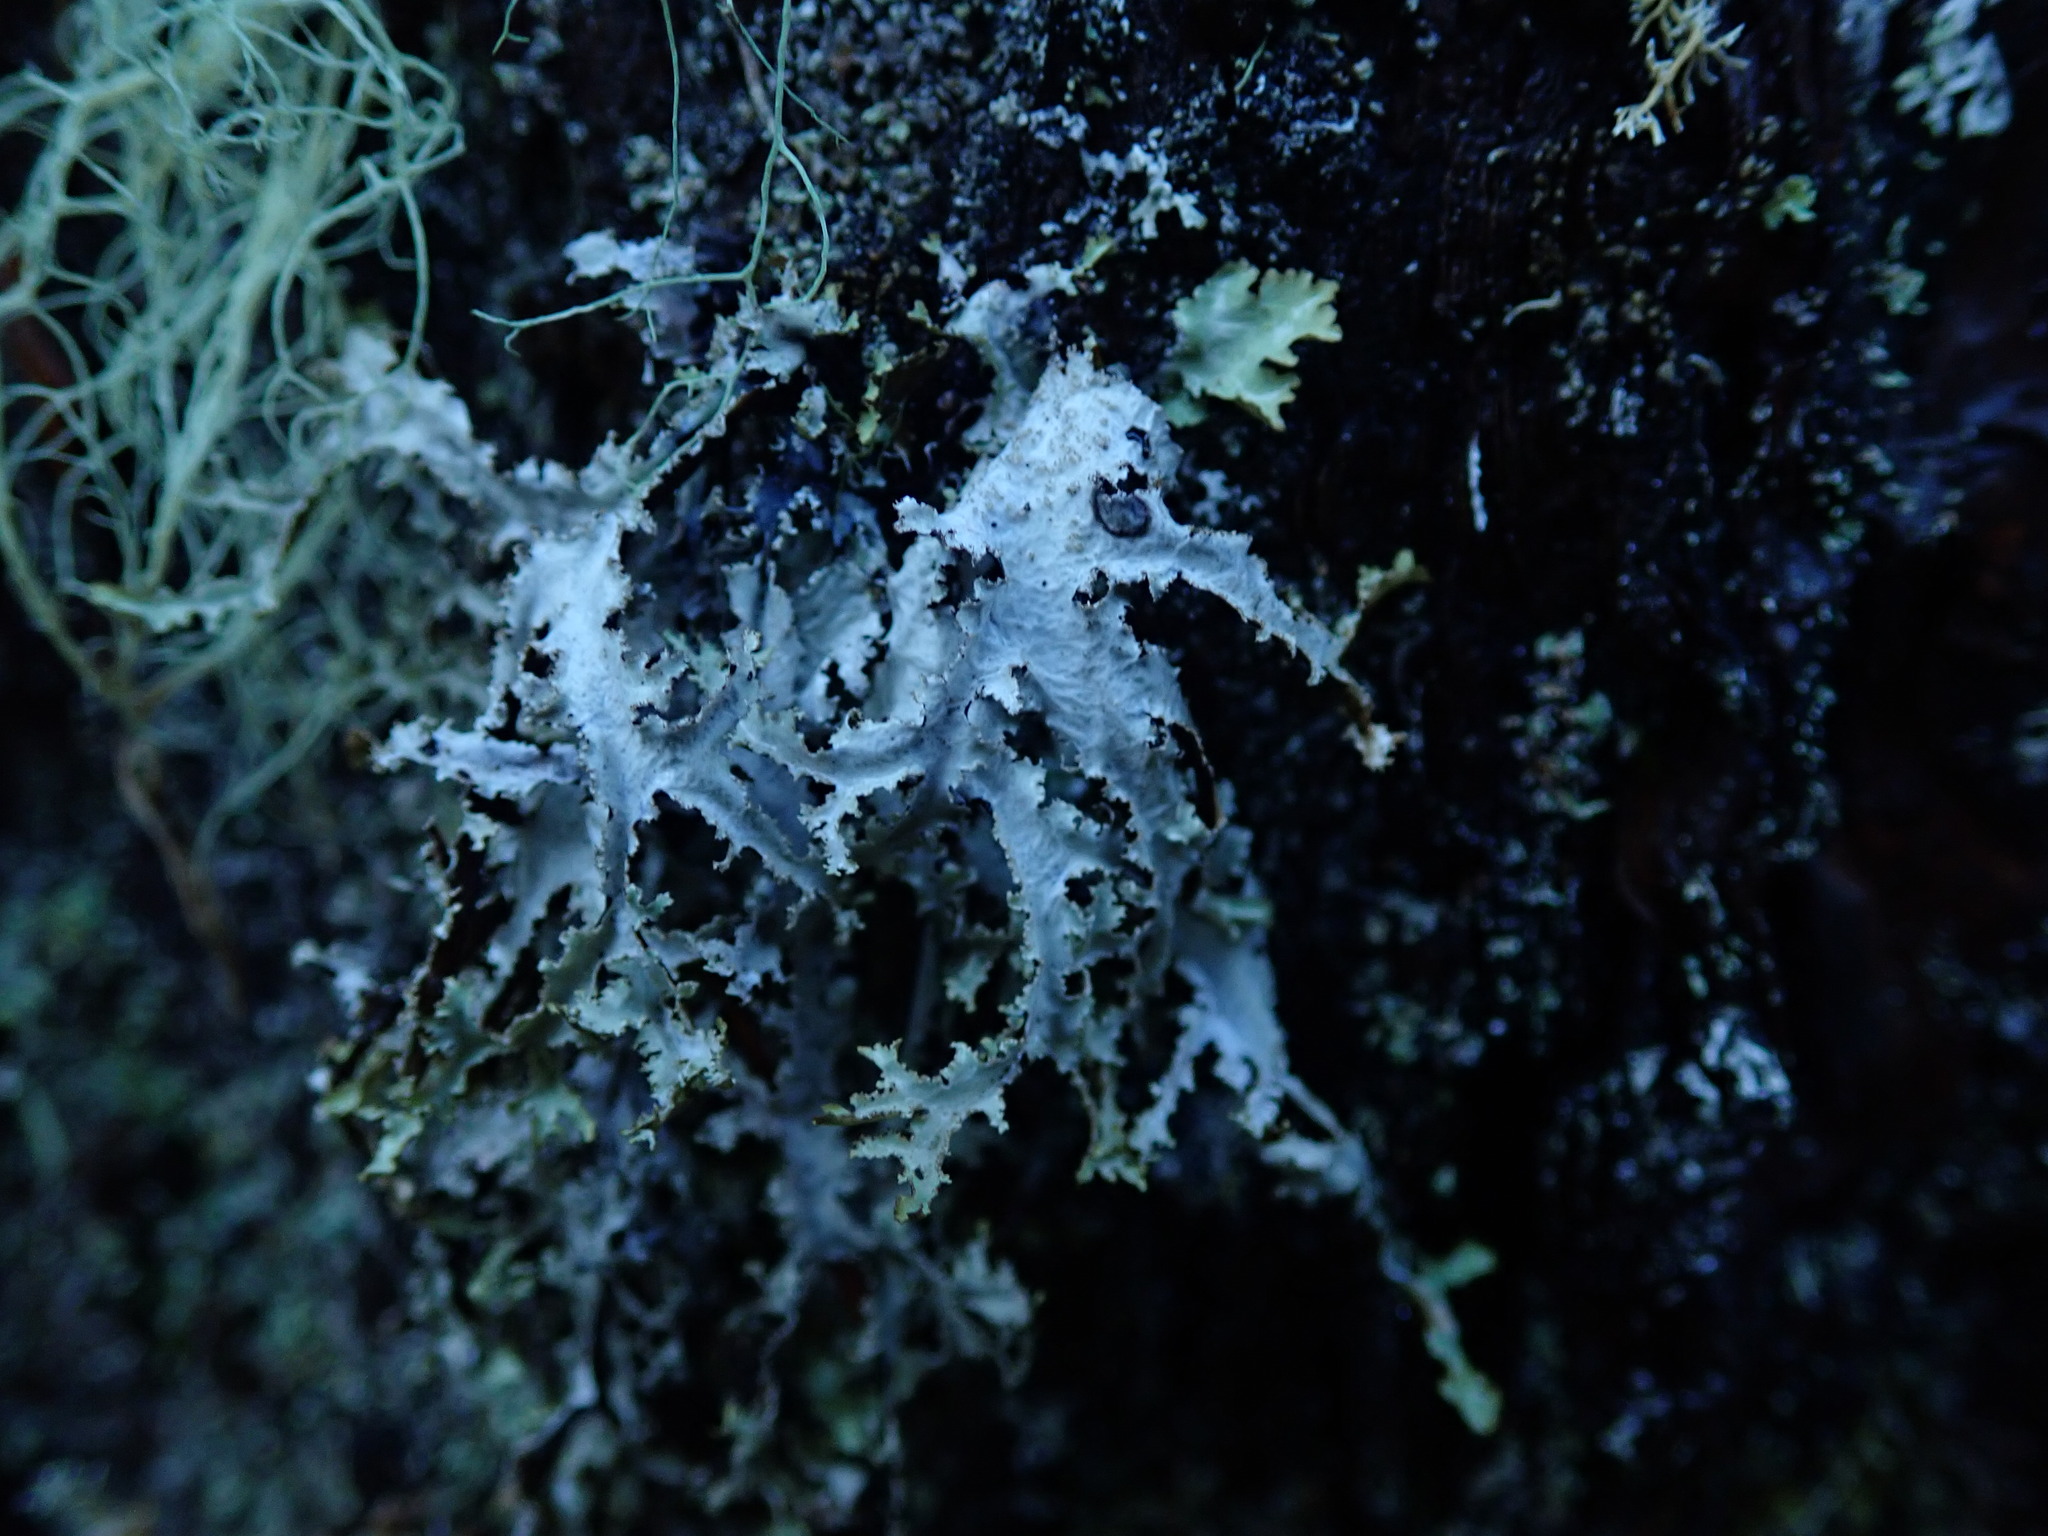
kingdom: Fungi
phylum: Ascomycota
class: Lecanoromycetes
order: Lecanorales
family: Parmeliaceae
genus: Platismatia
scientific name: Platismatia herrei
